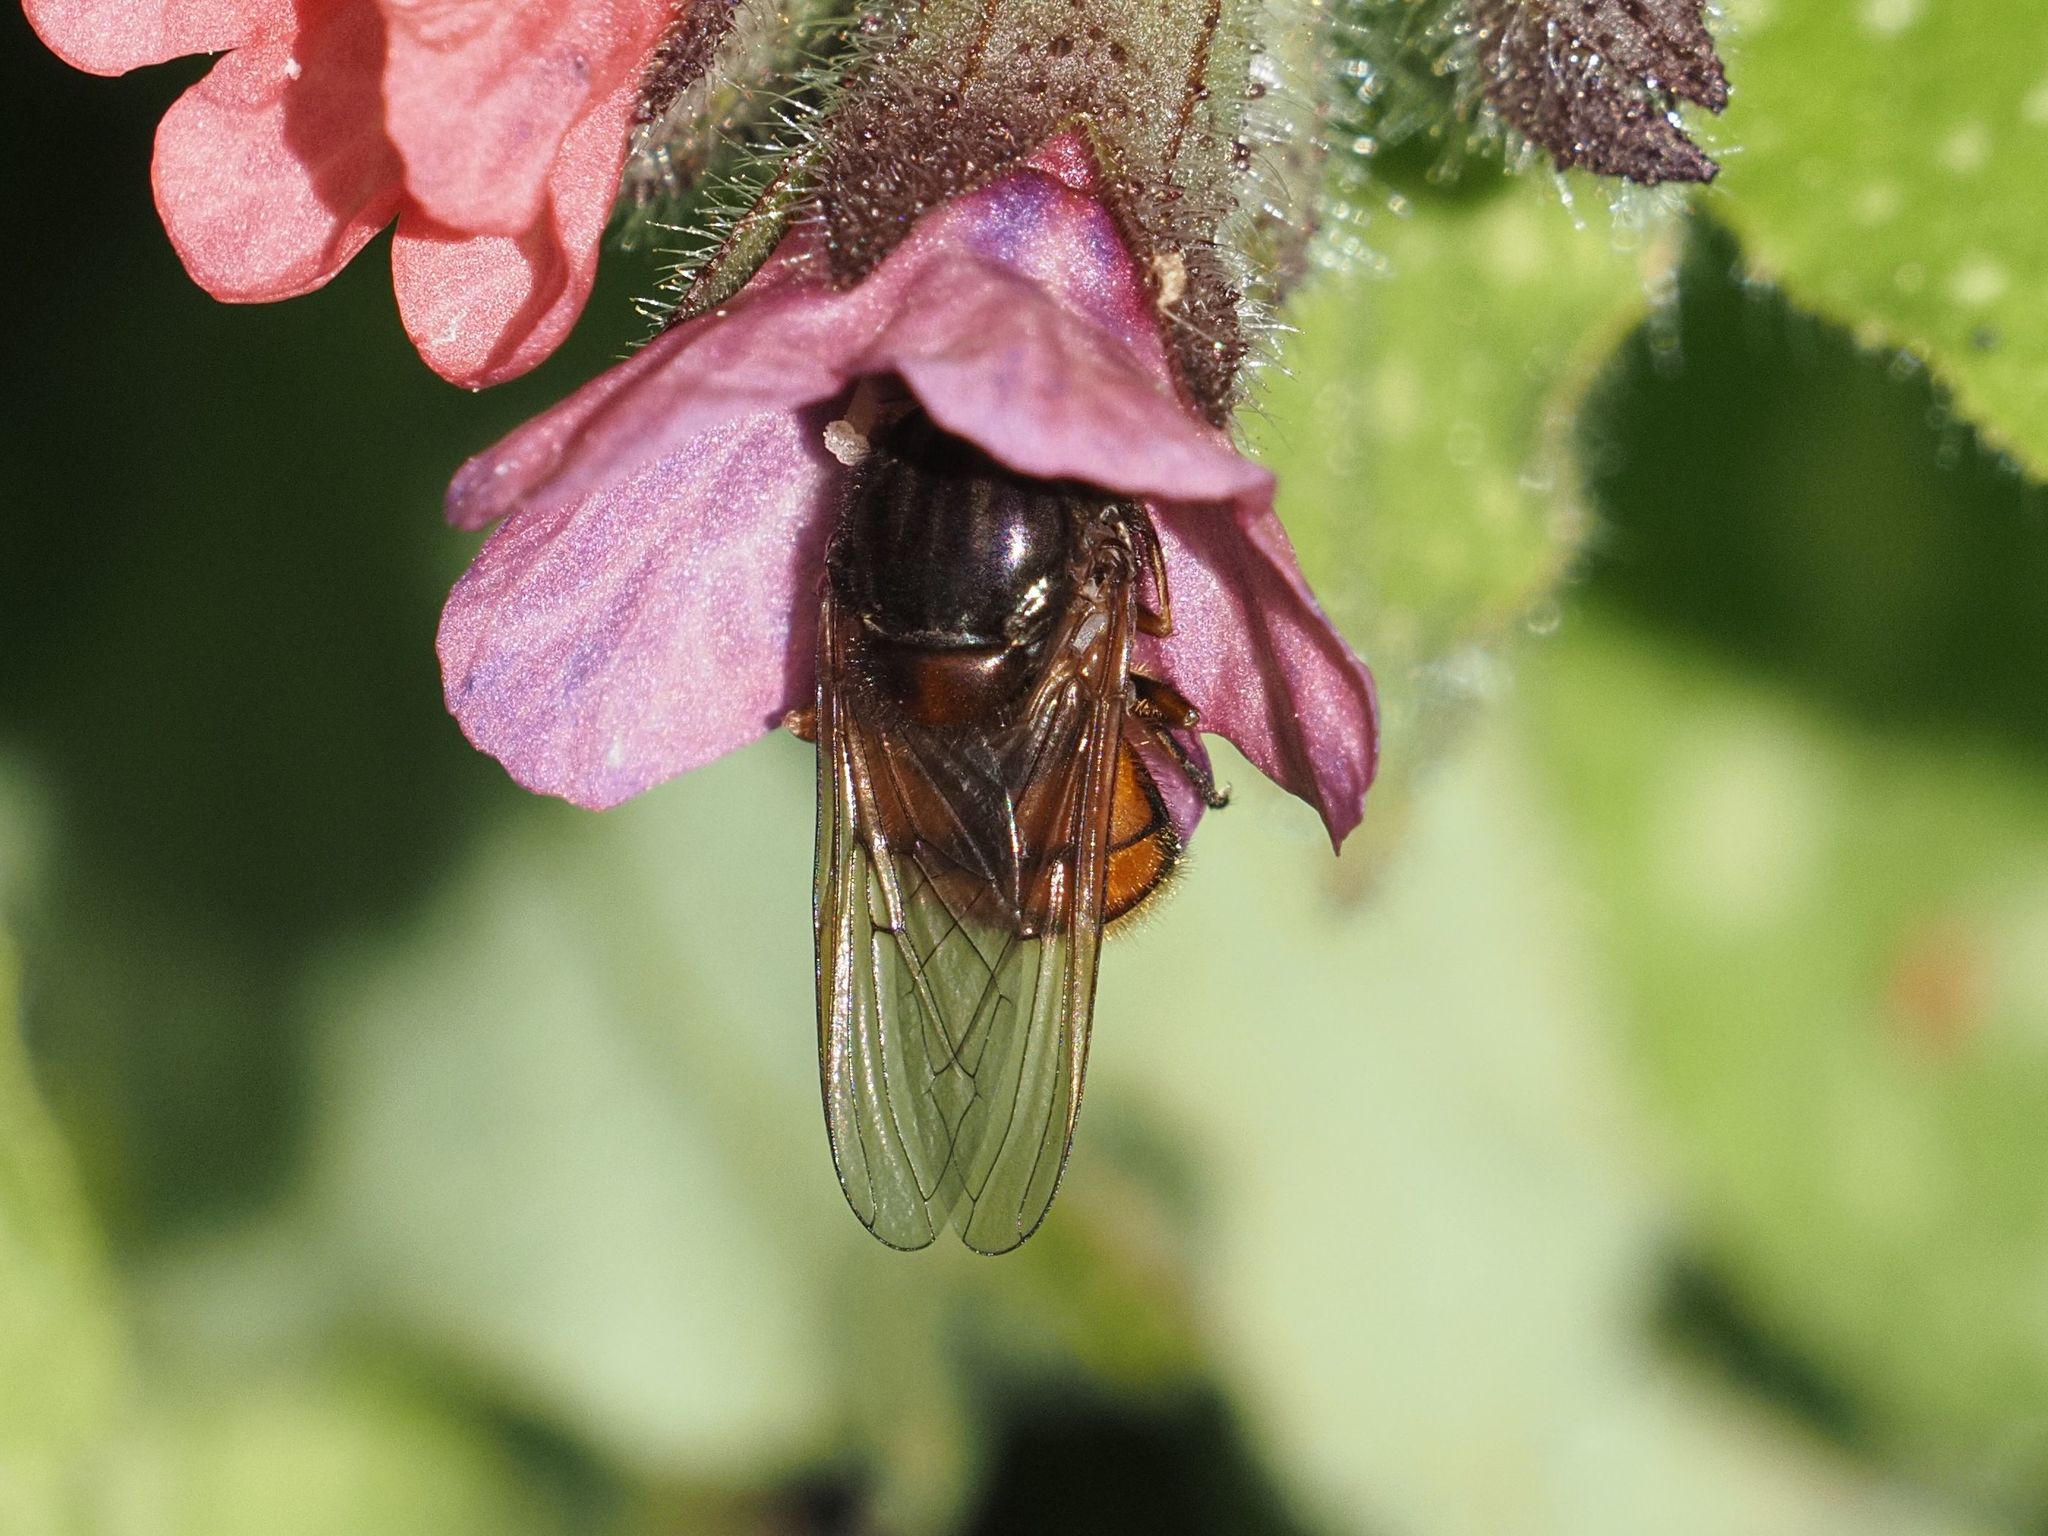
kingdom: Animalia
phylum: Arthropoda
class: Insecta
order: Diptera
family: Syrphidae
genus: Rhingia
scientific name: Rhingia campestris
